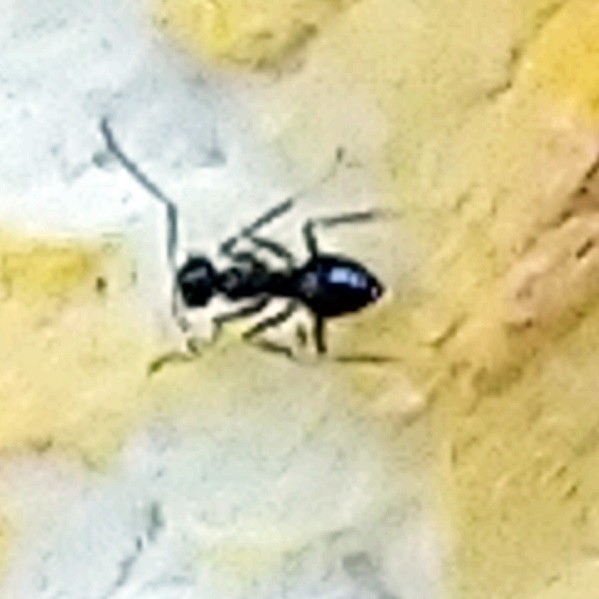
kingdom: Animalia
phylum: Arthropoda
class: Insecta
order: Hymenoptera
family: Formicidae
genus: Lepisiota
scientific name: Lepisiota incisa
